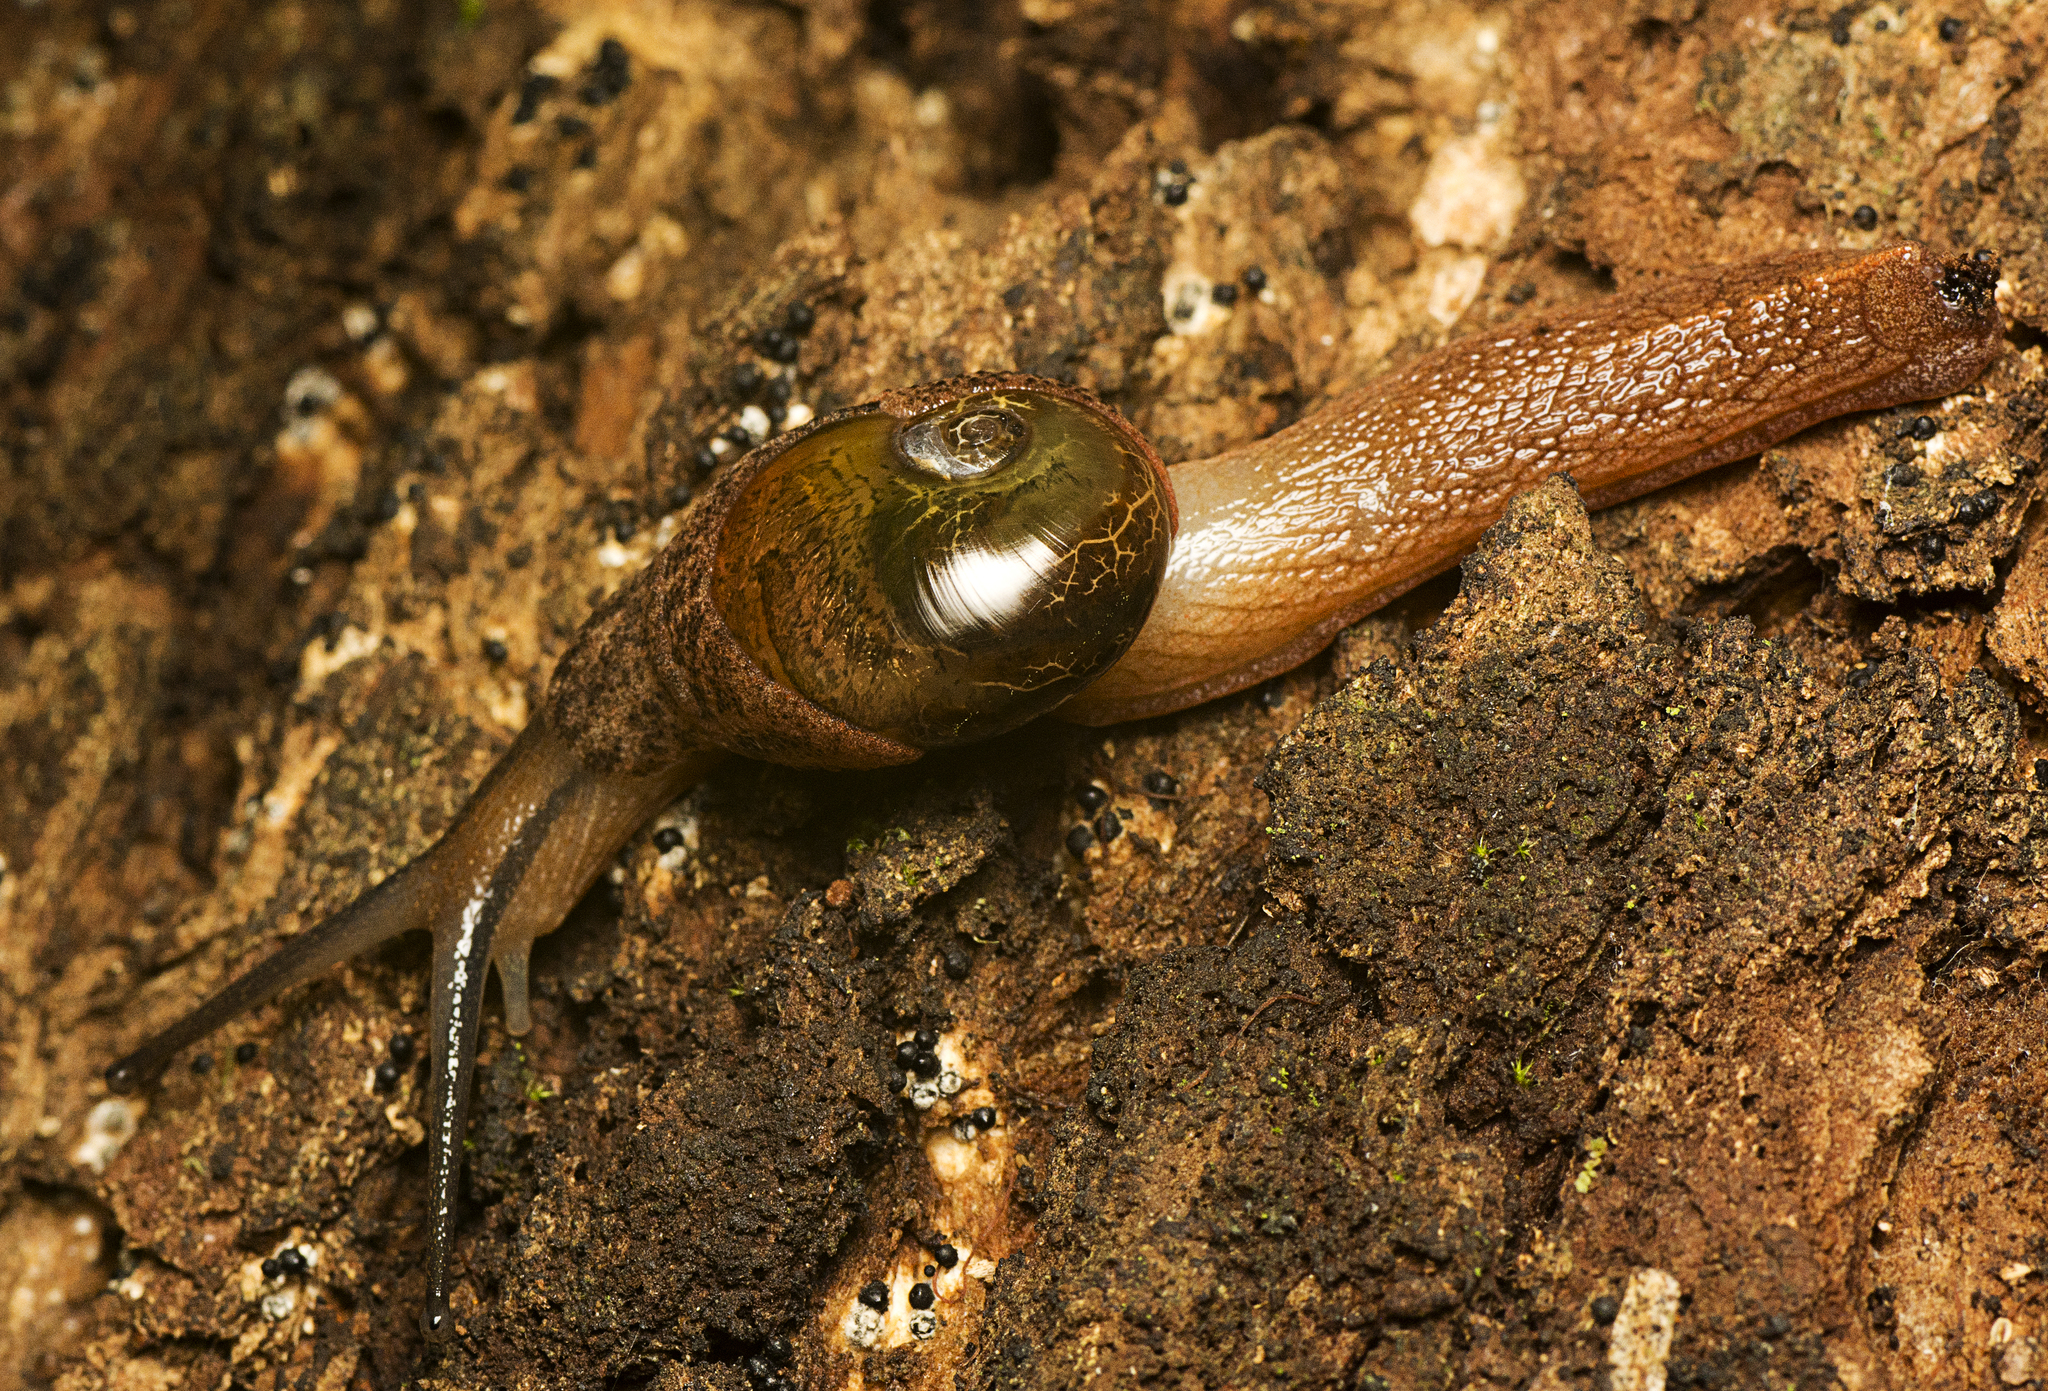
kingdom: Animalia
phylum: Mollusca
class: Gastropoda
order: Stylommatophora
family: Helicarionidae
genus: Stanisicarion
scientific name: Stanisicarion freycineti
